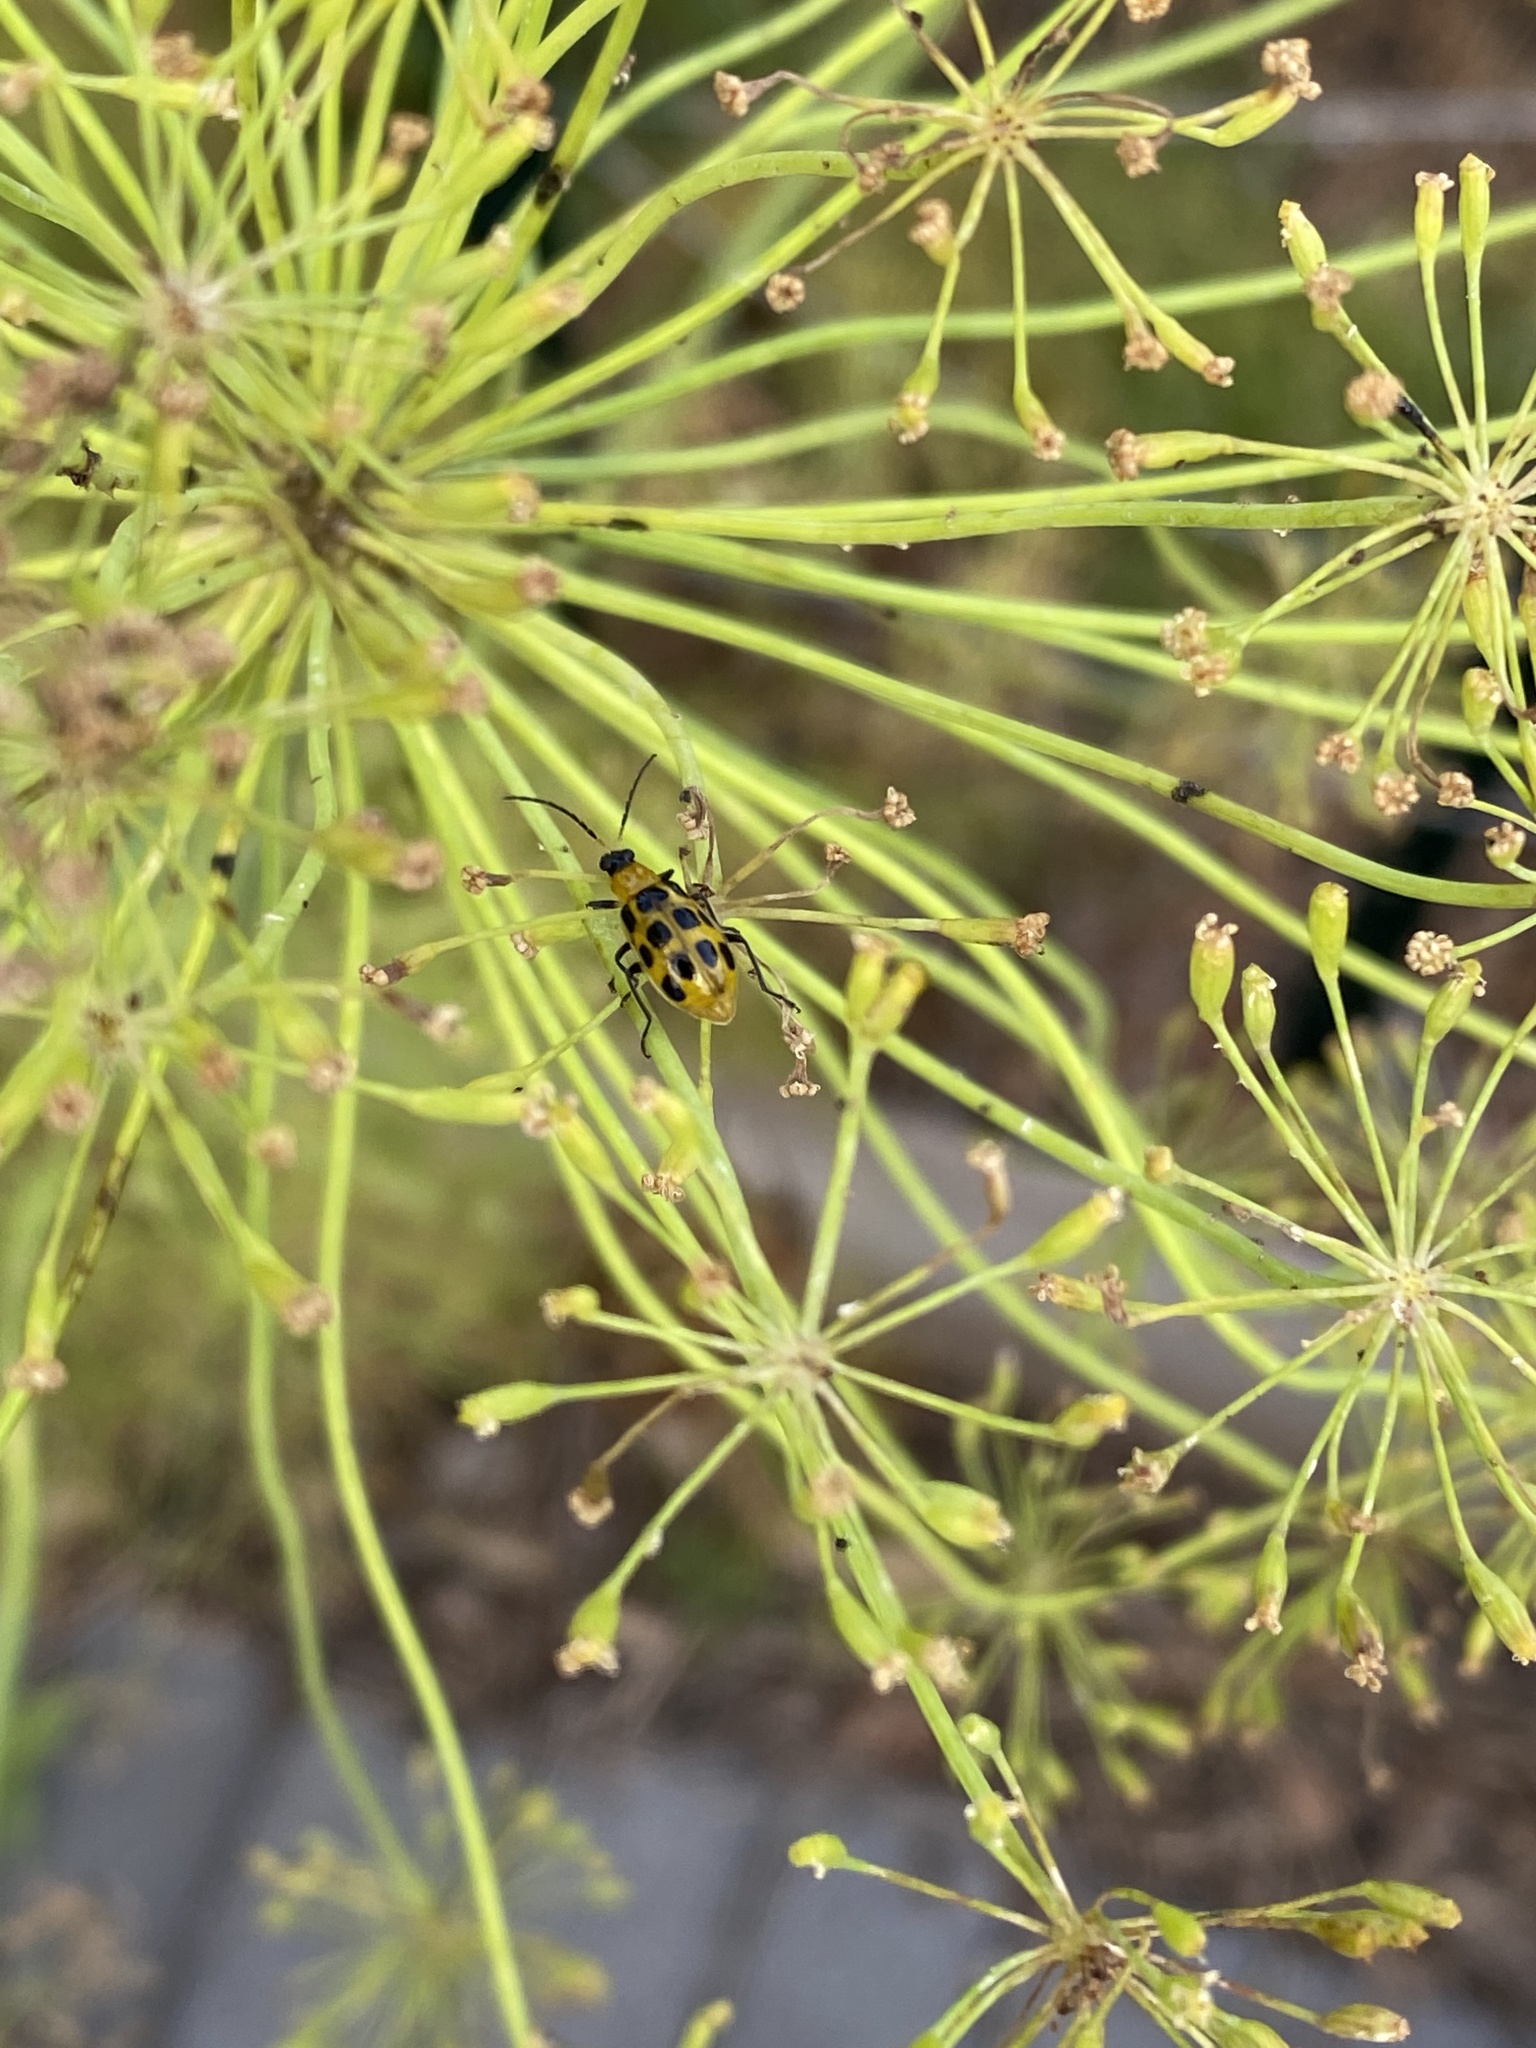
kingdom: Animalia
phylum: Arthropoda
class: Insecta
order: Coleoptera
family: Chrysomelidae
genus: Diabrotica
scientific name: Diabrotica undecimpunctata
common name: Spotted cucumber beetle
